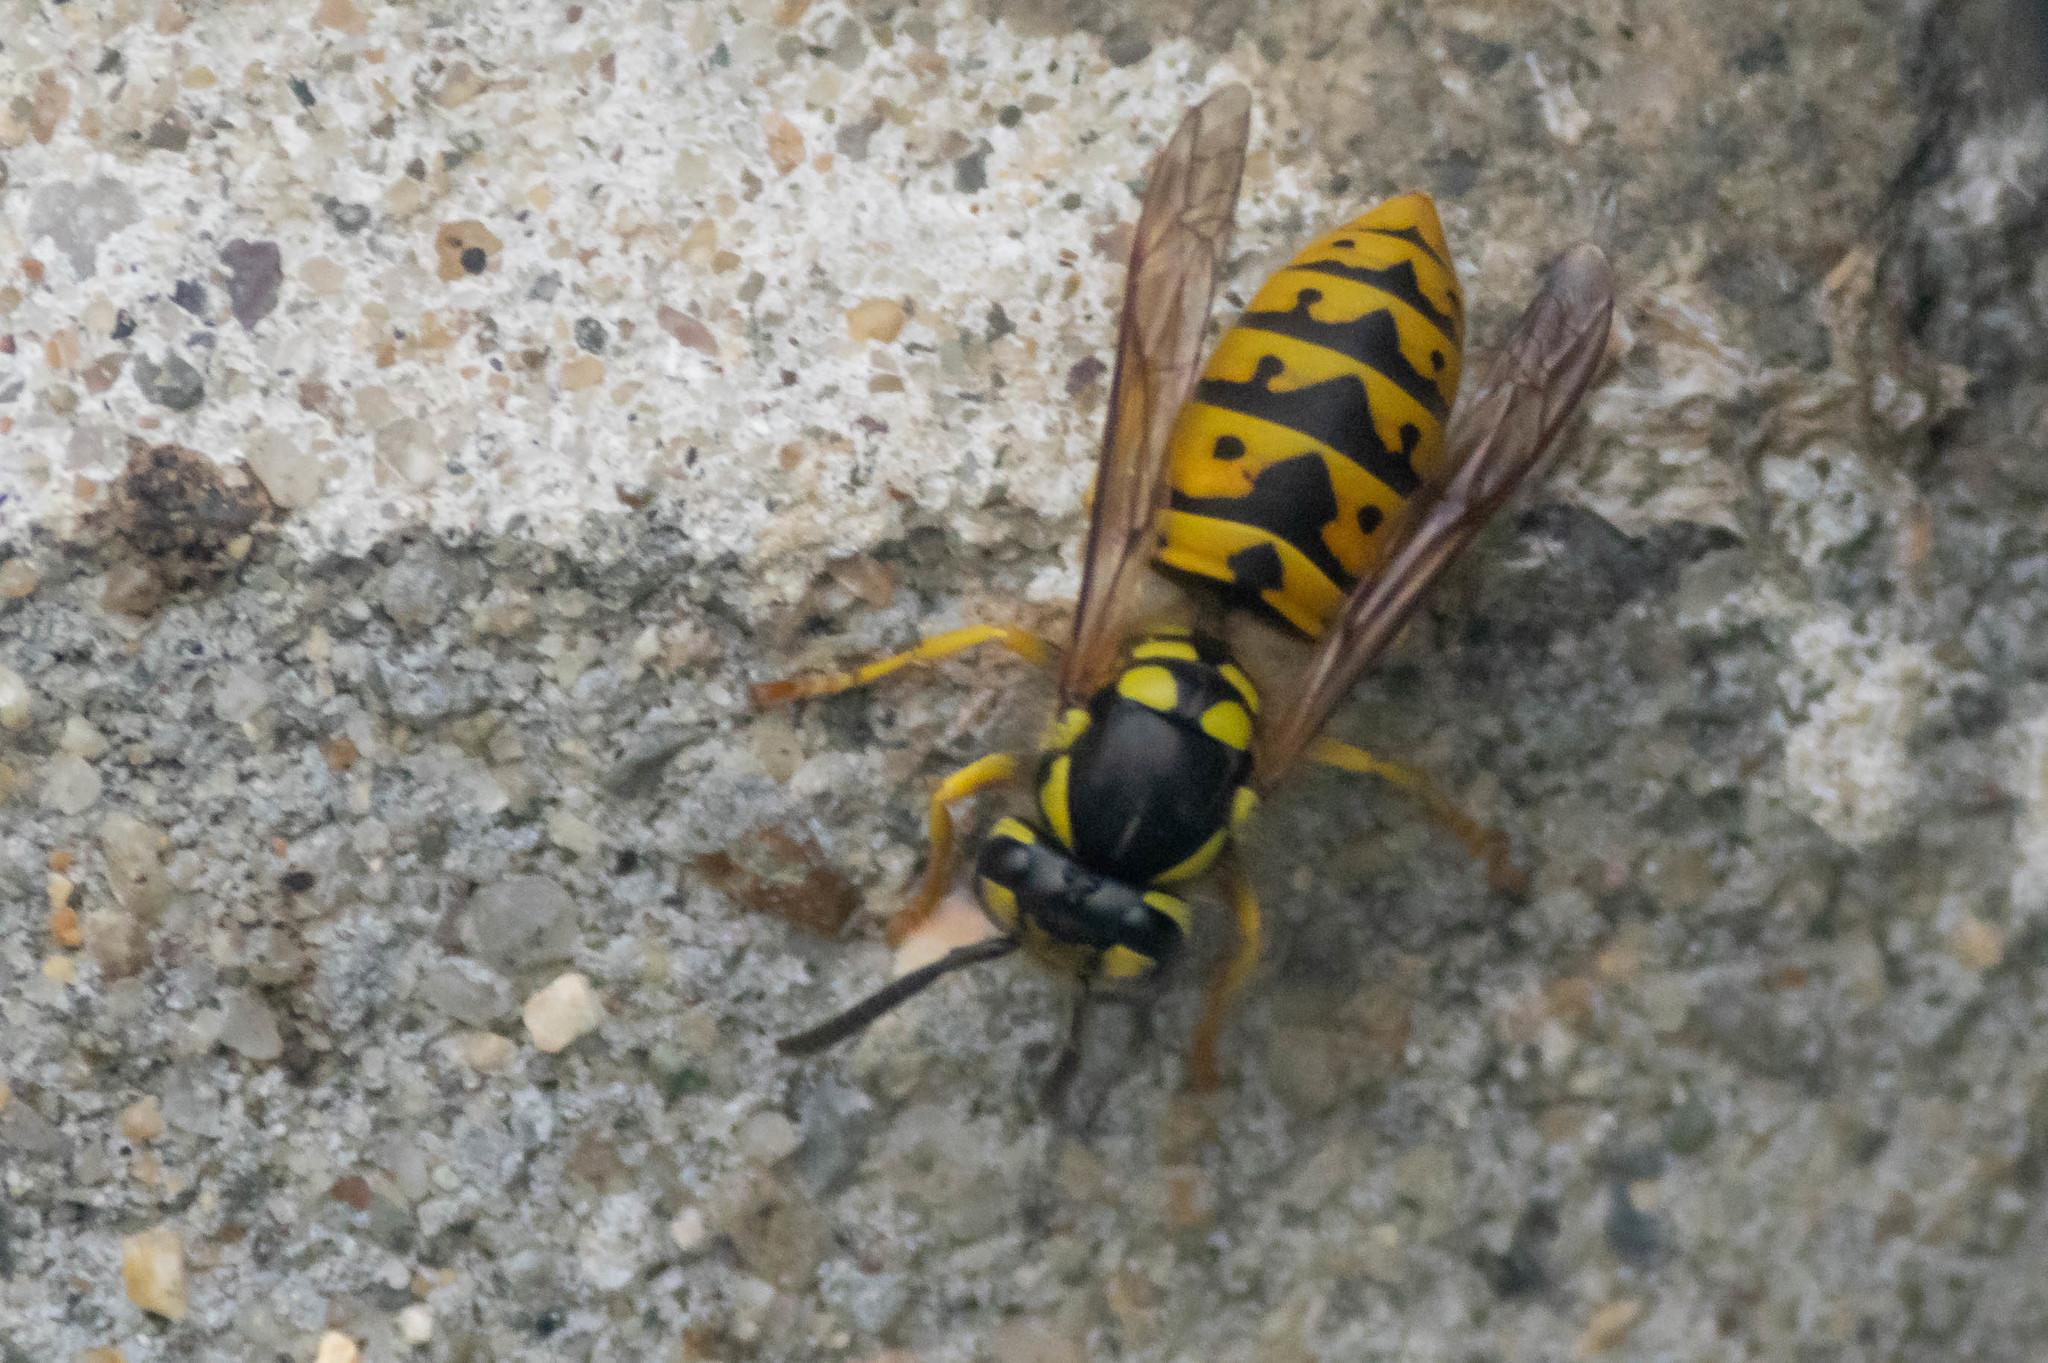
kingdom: Animalia
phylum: Arthropoda
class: Insecta
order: Hymenoptera
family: Vespidae
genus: Vespula
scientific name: Vespula germanica
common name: German wasp
